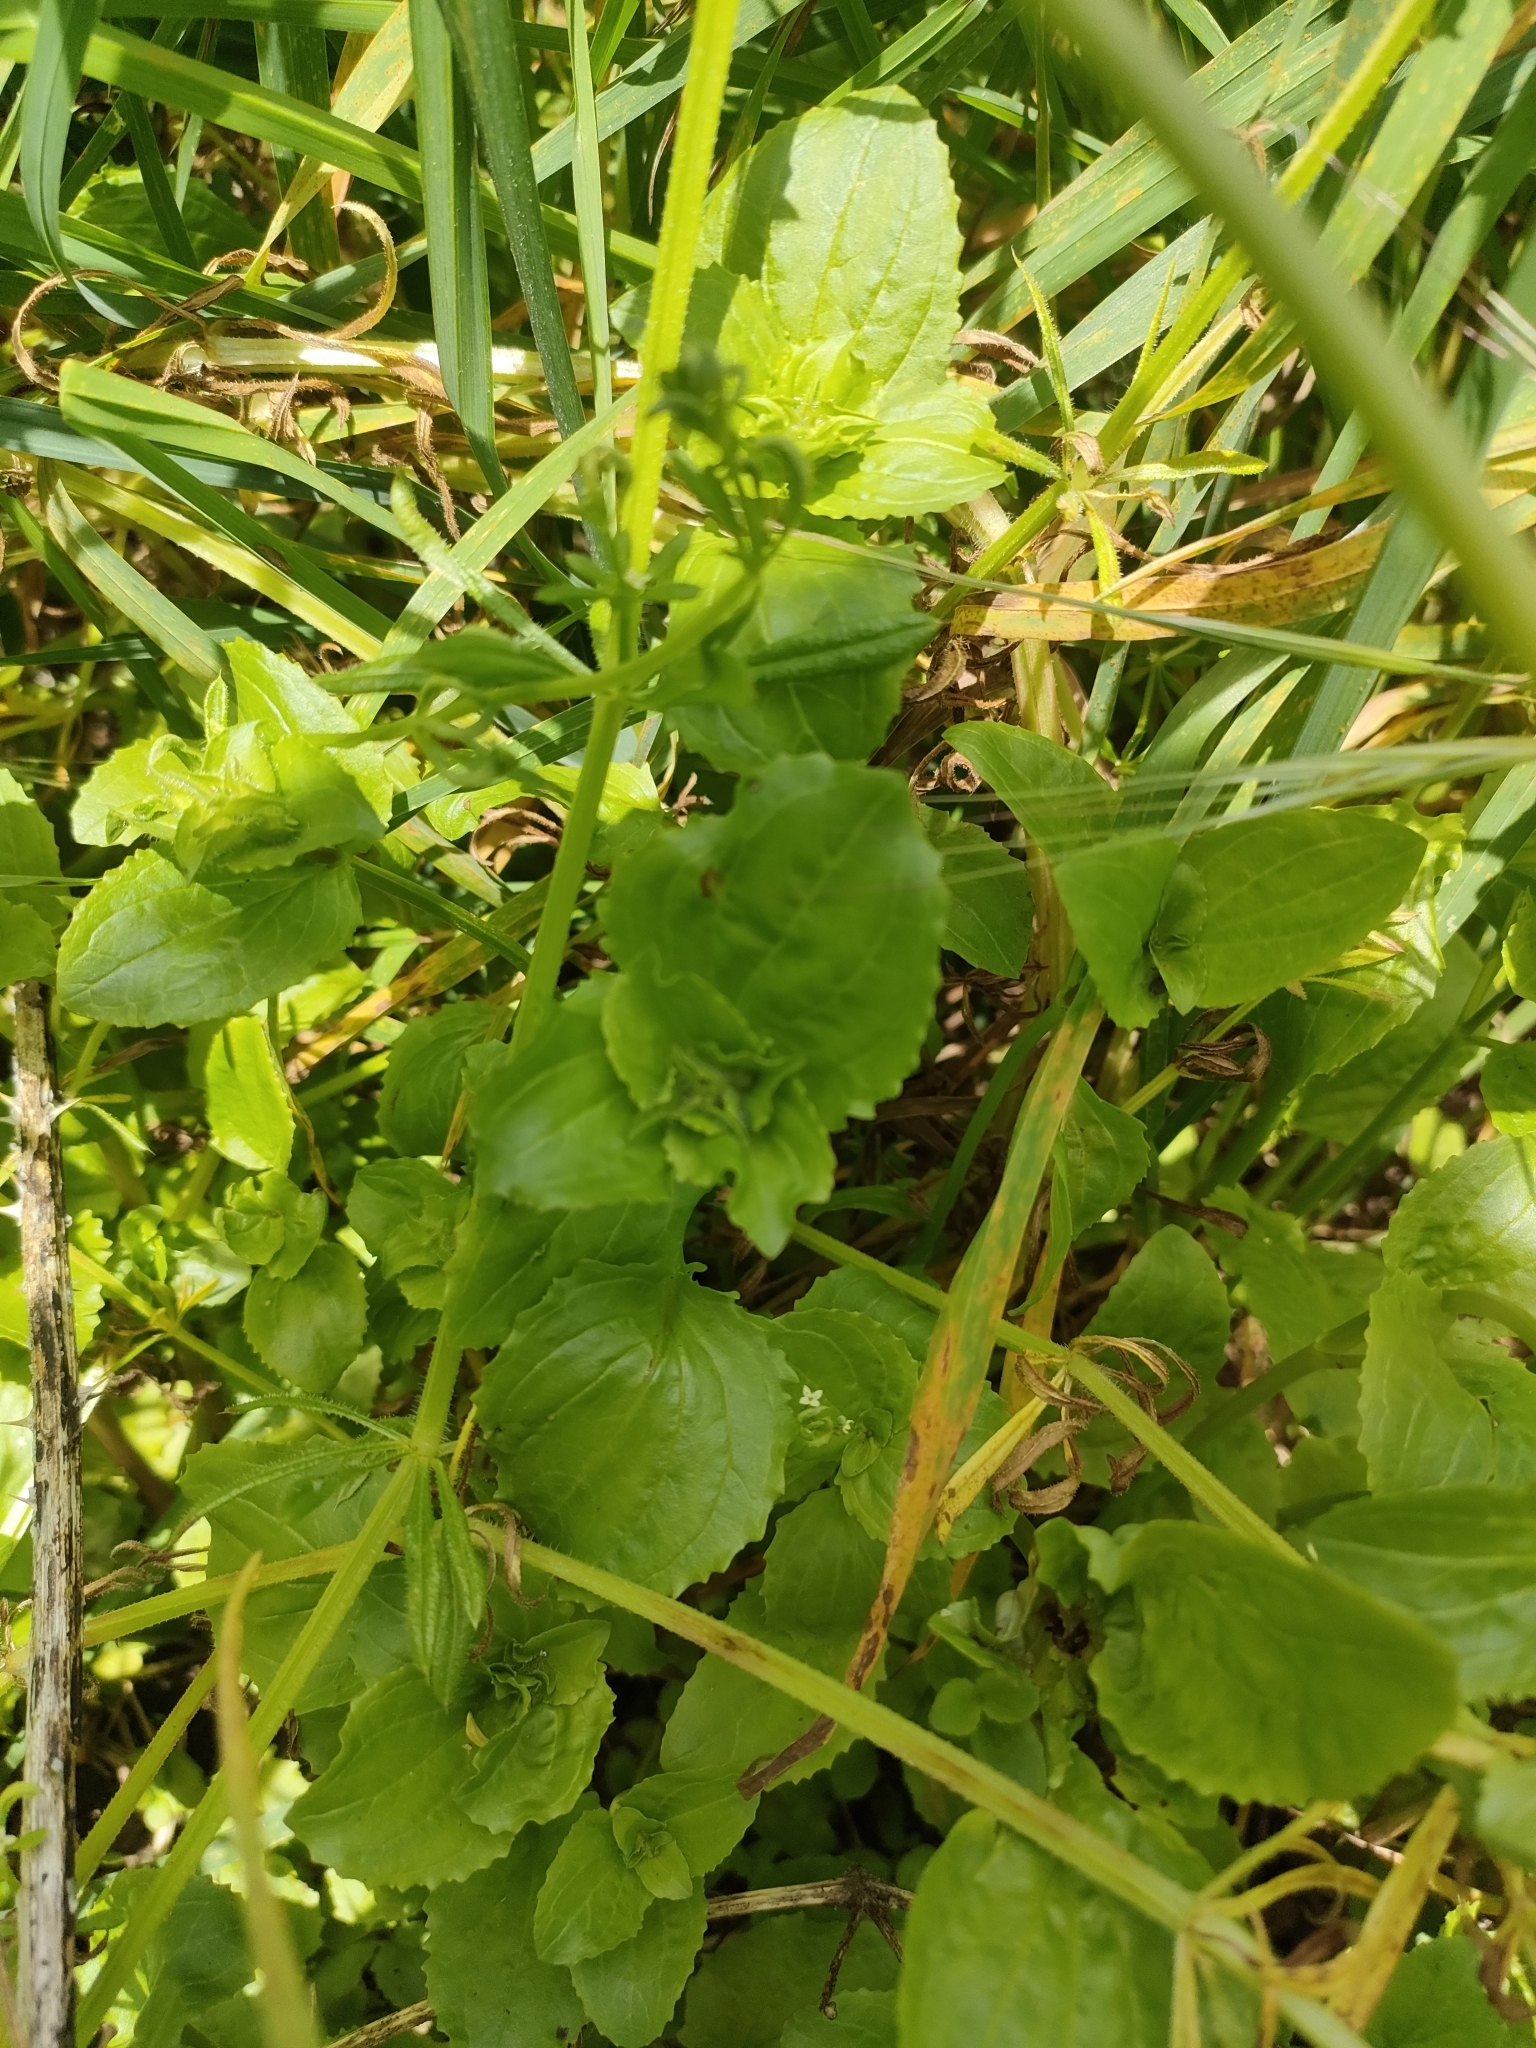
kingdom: Plantae
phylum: Tracheophyta
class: Magnoliopsida
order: Lamiales
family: Phrymaceae
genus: Erythranthe
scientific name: Erythranthe guttata
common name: Monkeyflower
